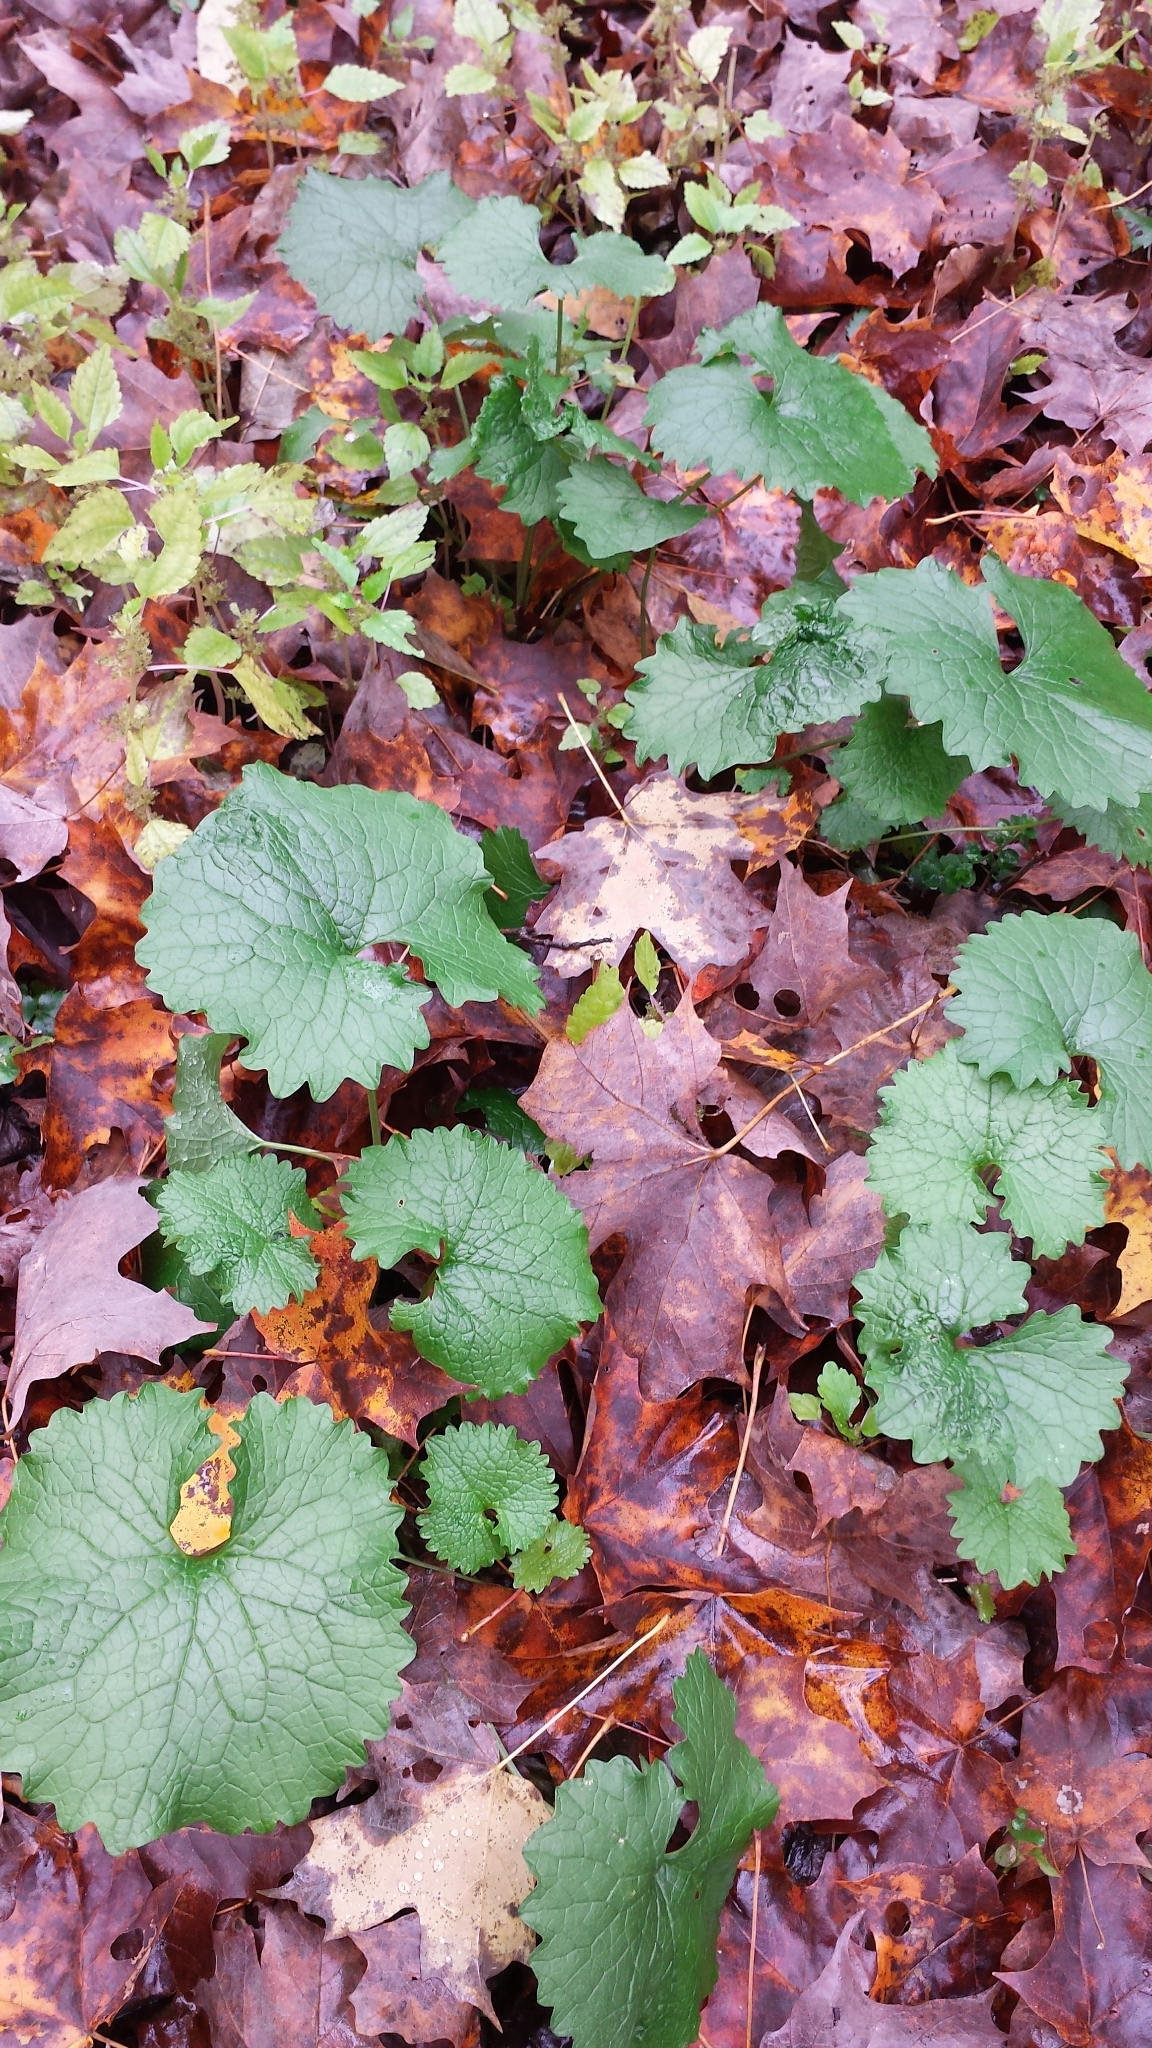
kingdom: Plantae
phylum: Tracheophyta
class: Magnoliopsida
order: Brassicales
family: Brassicaceae
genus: Alliaria
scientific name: Alliaria petiolata
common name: Garlic mustard
